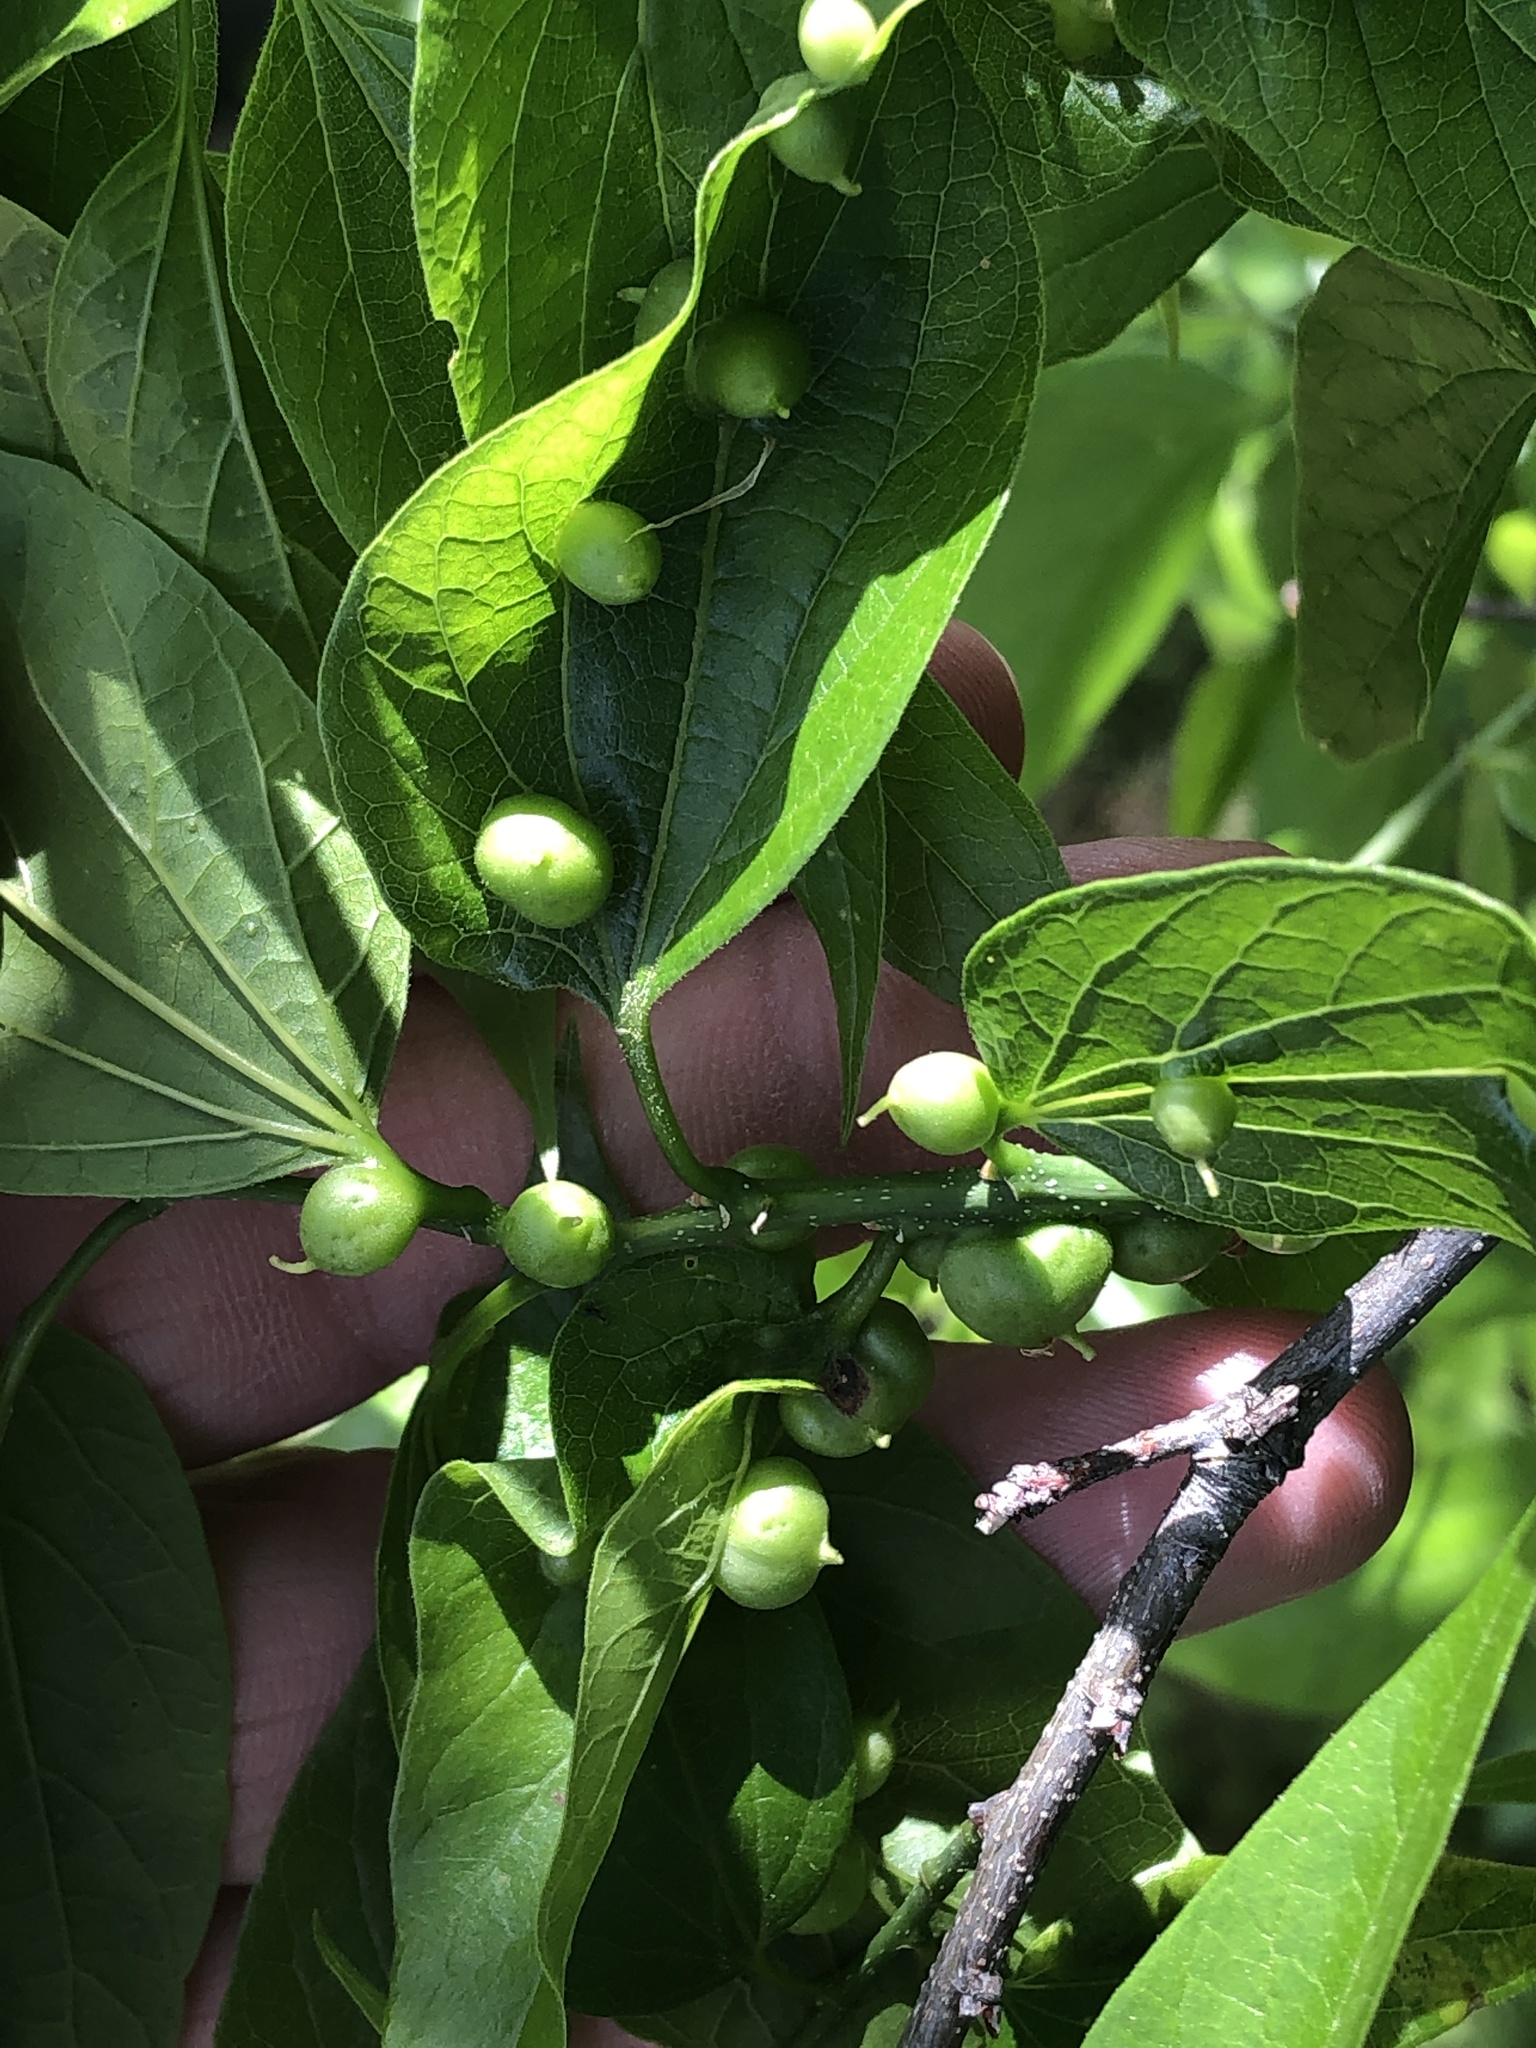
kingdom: Animalia
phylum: Arthropoda
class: Insecta
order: Diptera
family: Cecidomyiidae
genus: Celticecis
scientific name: Celticecis connata
